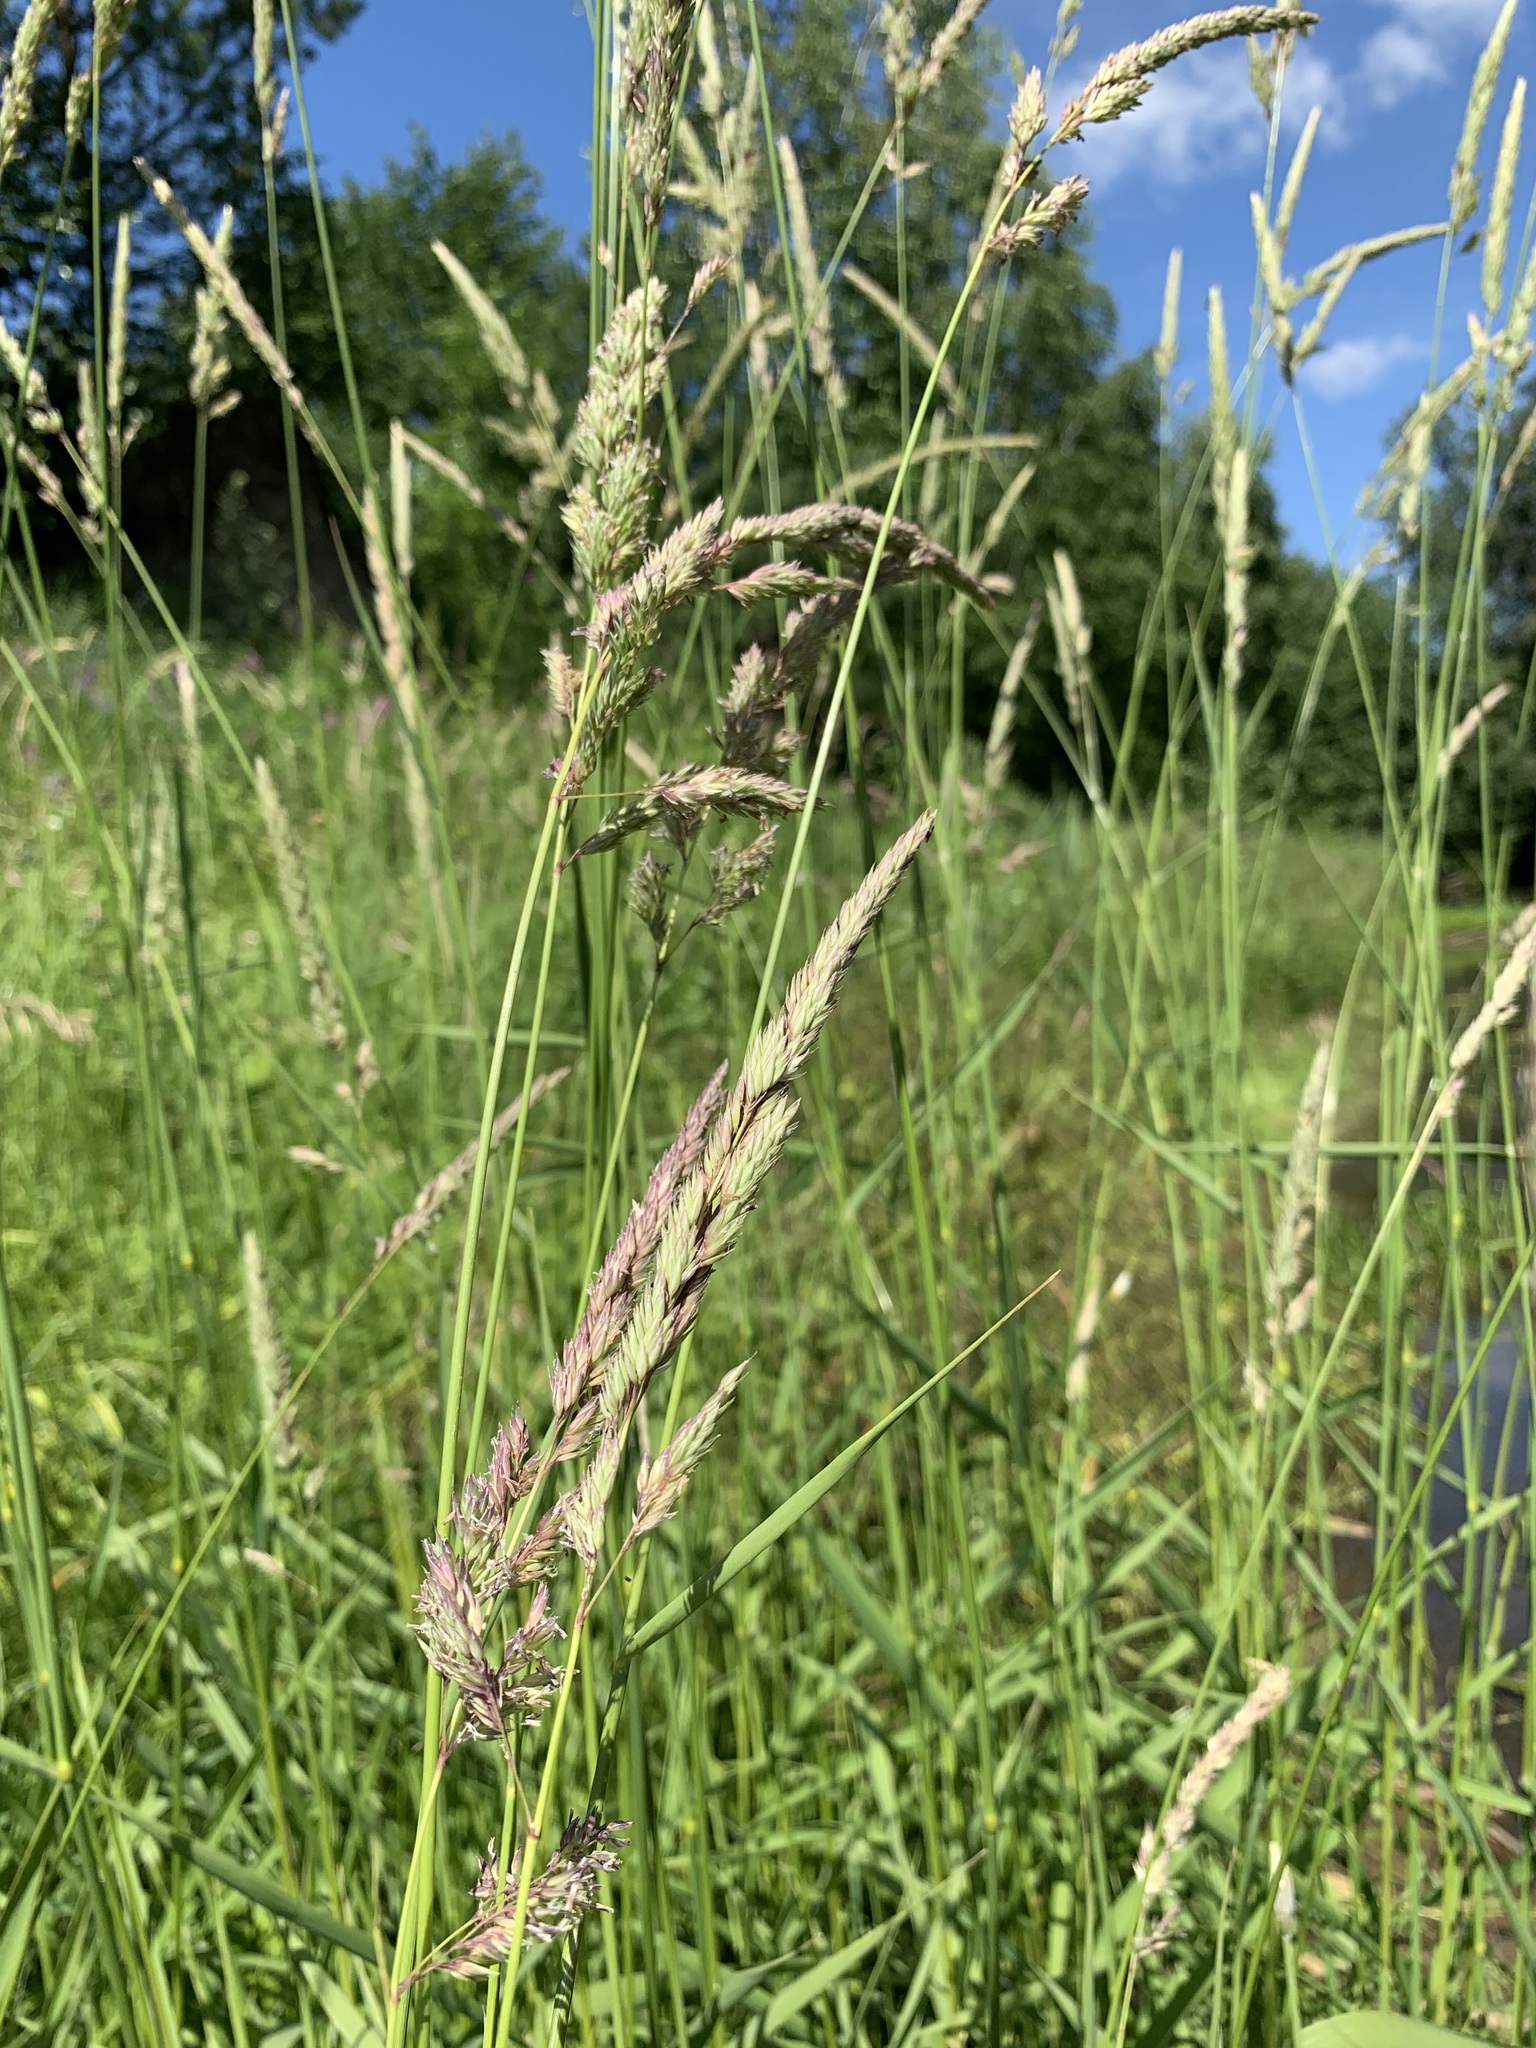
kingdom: Plantae
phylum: Tracheophyta
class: Liliopsida
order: Poales
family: Poaceae
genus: Phalaris
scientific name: Phalaris arundinacea
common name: Reed canary-grass
